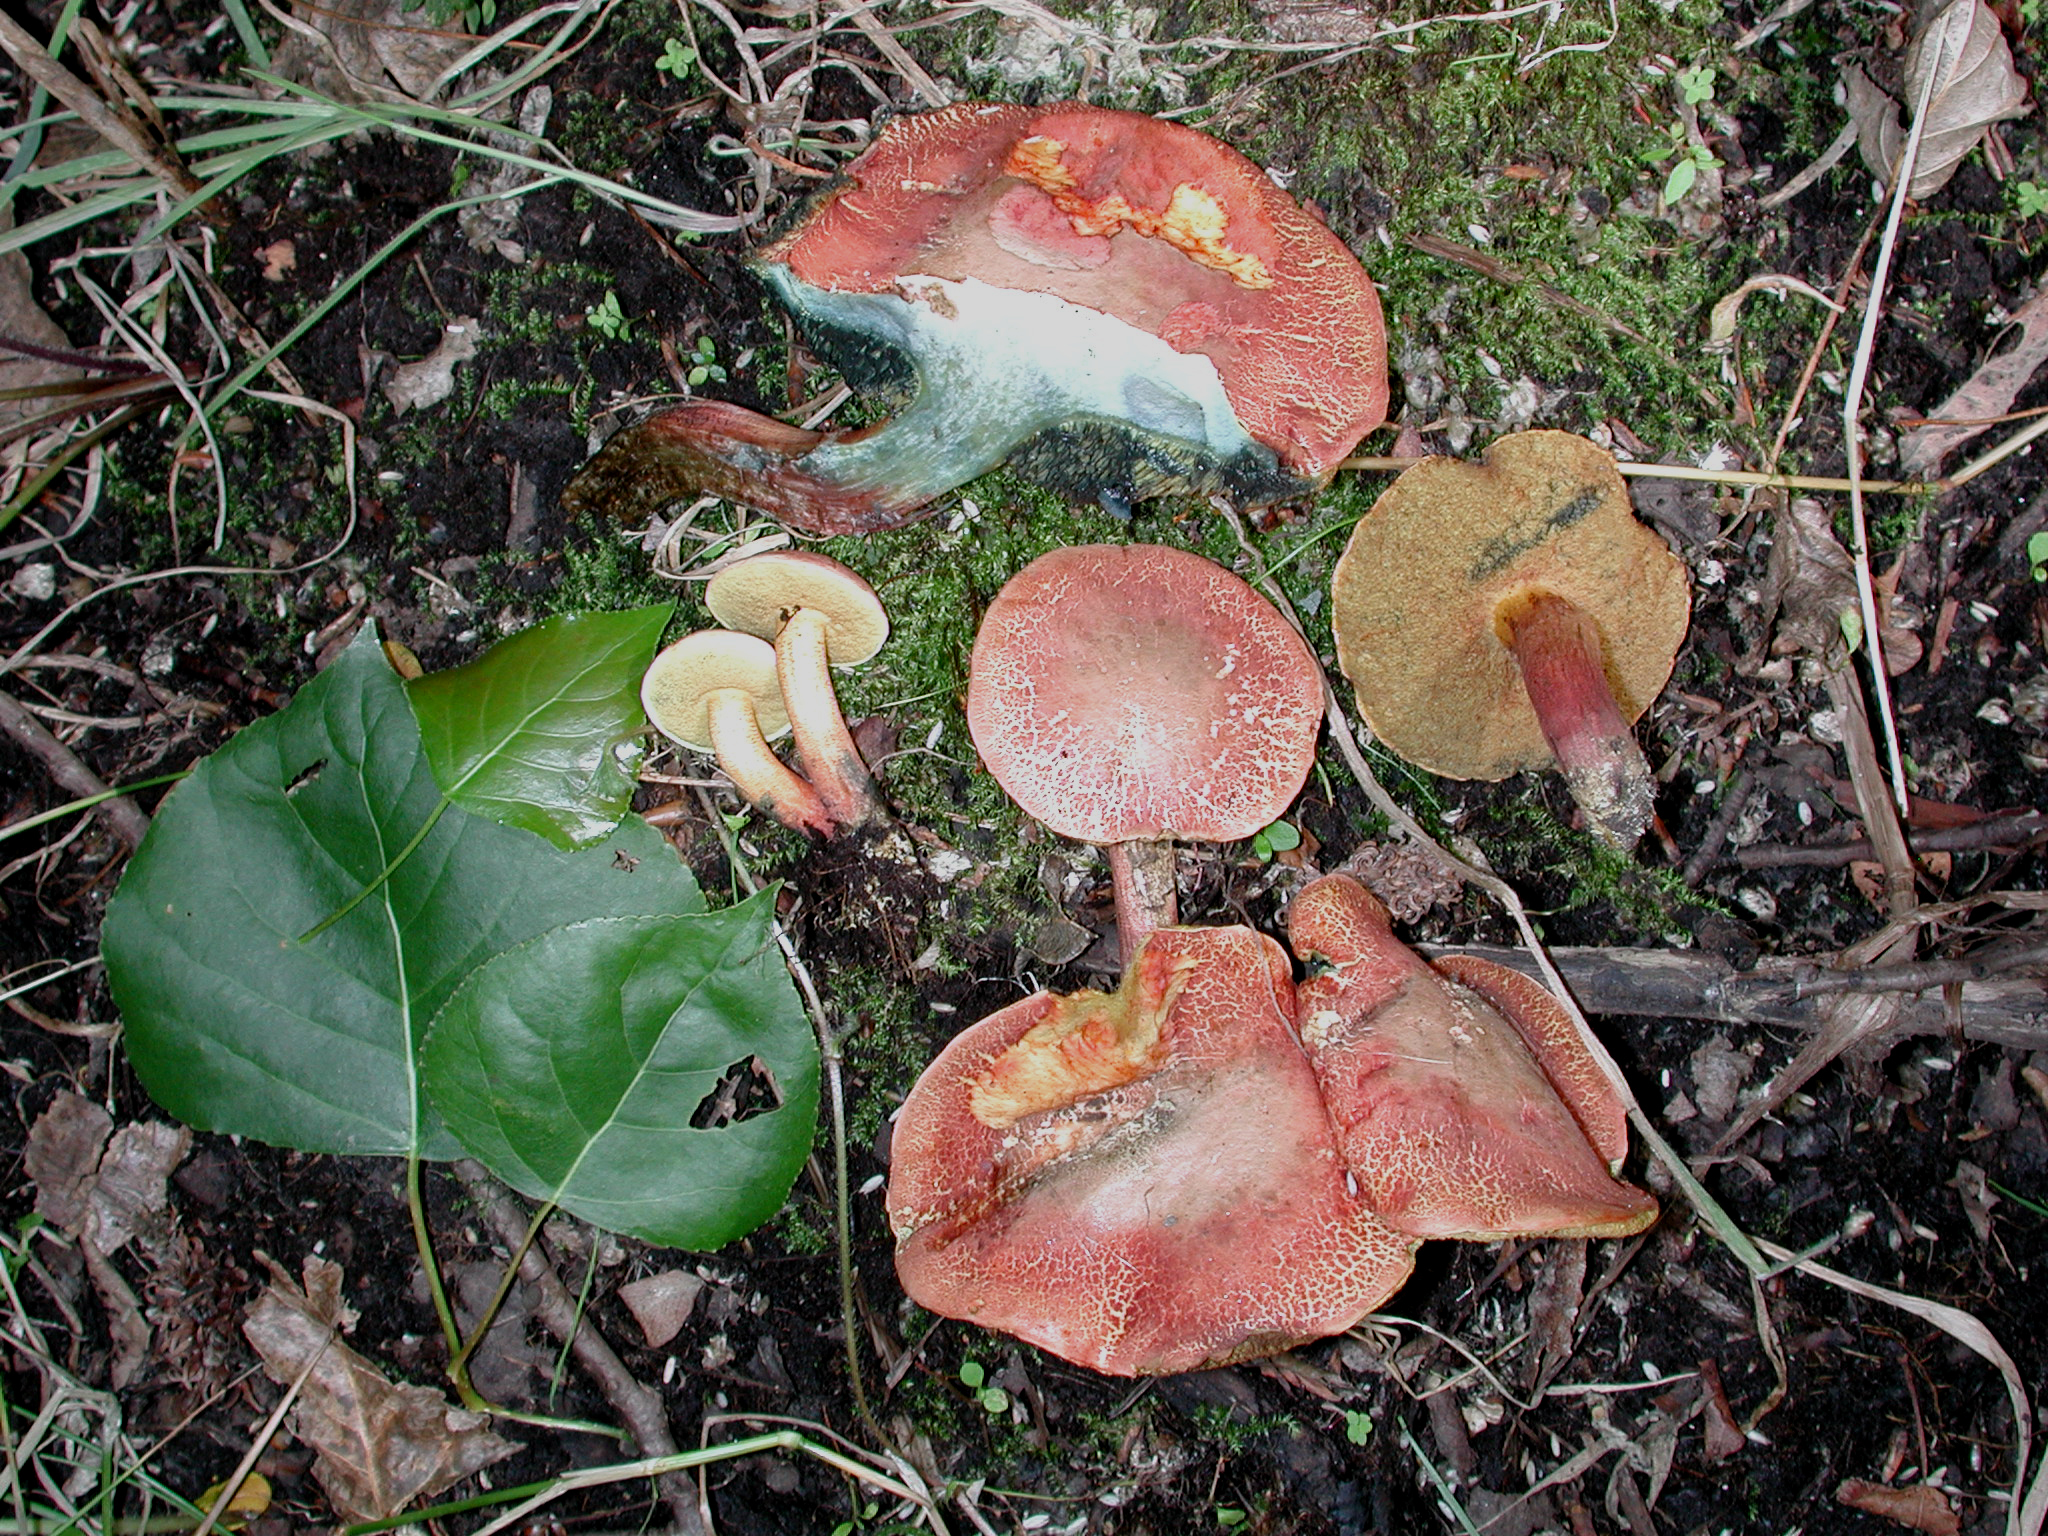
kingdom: Fungi
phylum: Basidiomycota
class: Agaricomycetes
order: Boletales
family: Boletaceae
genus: Xerocomellus
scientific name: Xerocomellus ripariellus
